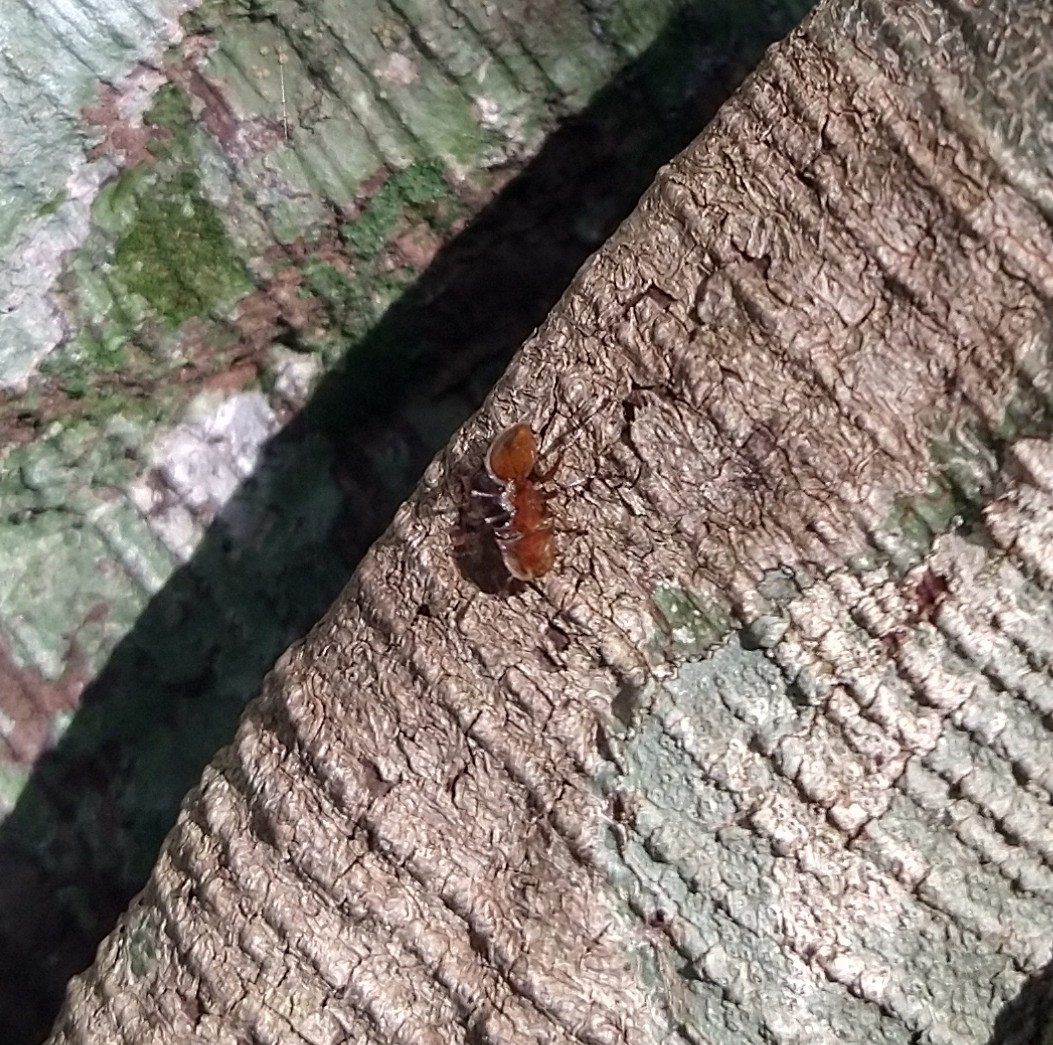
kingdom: Animalia
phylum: Arthropoda
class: Insecta
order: Hymenoptera
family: Formicidae
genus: Cephalotes
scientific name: Cephalotes clypeatus
